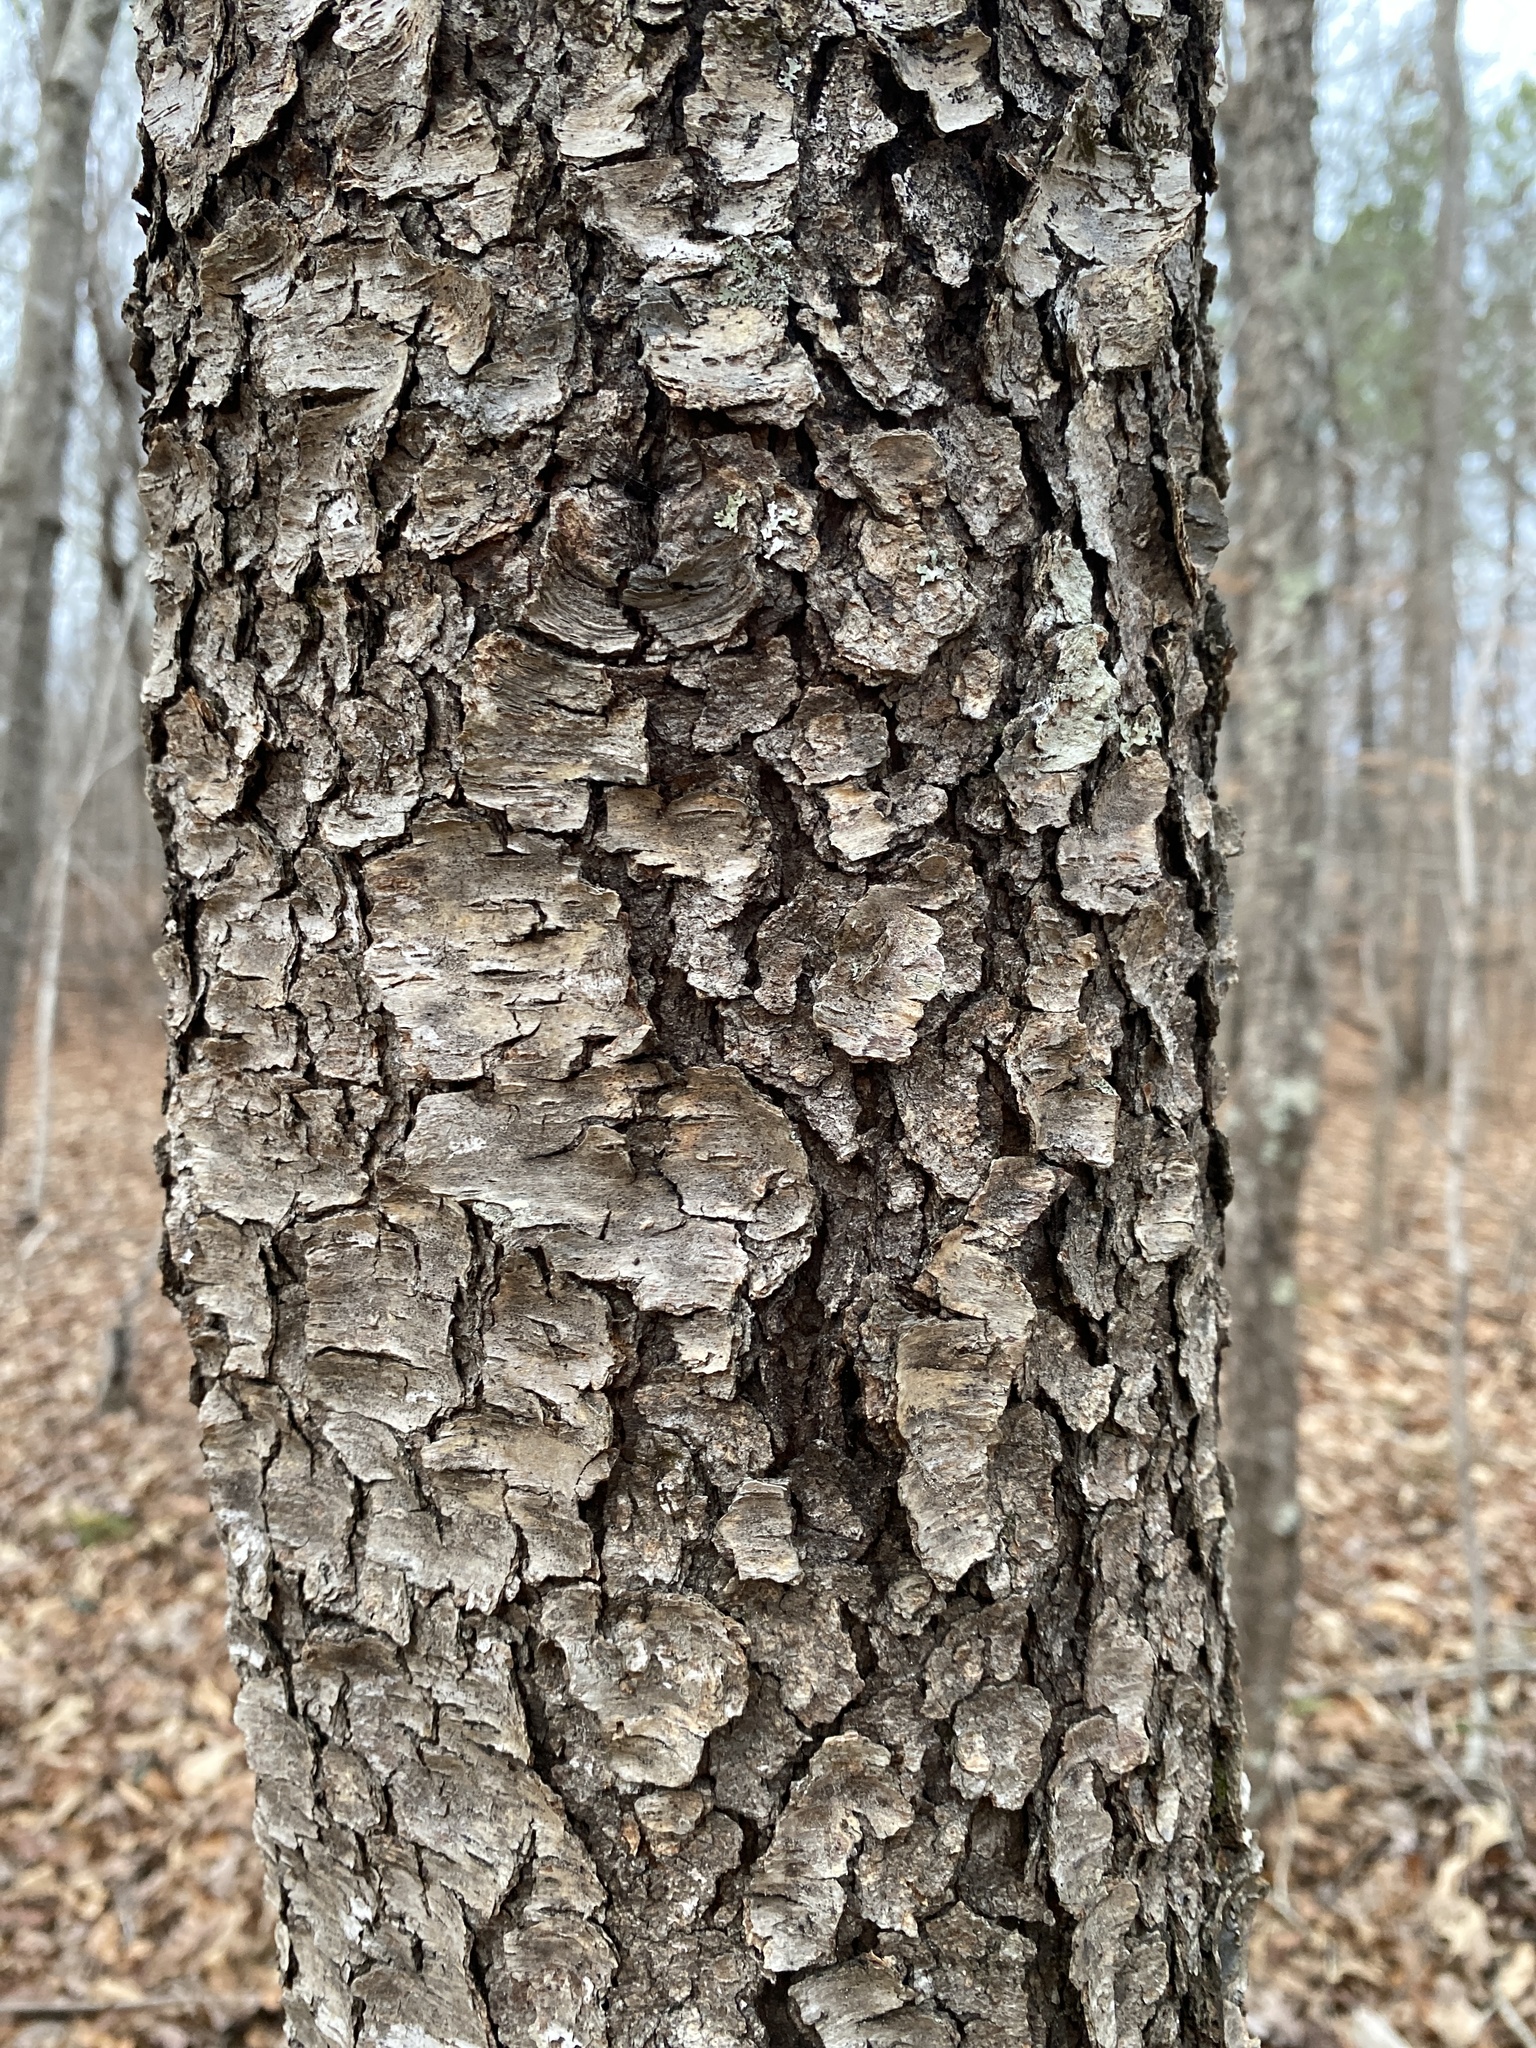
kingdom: Plantae
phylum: Tracheophyta
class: Magnoliopsida
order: Rosales
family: Rosaceae
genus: Prunus
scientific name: Prunus serotina
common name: Black cherry
